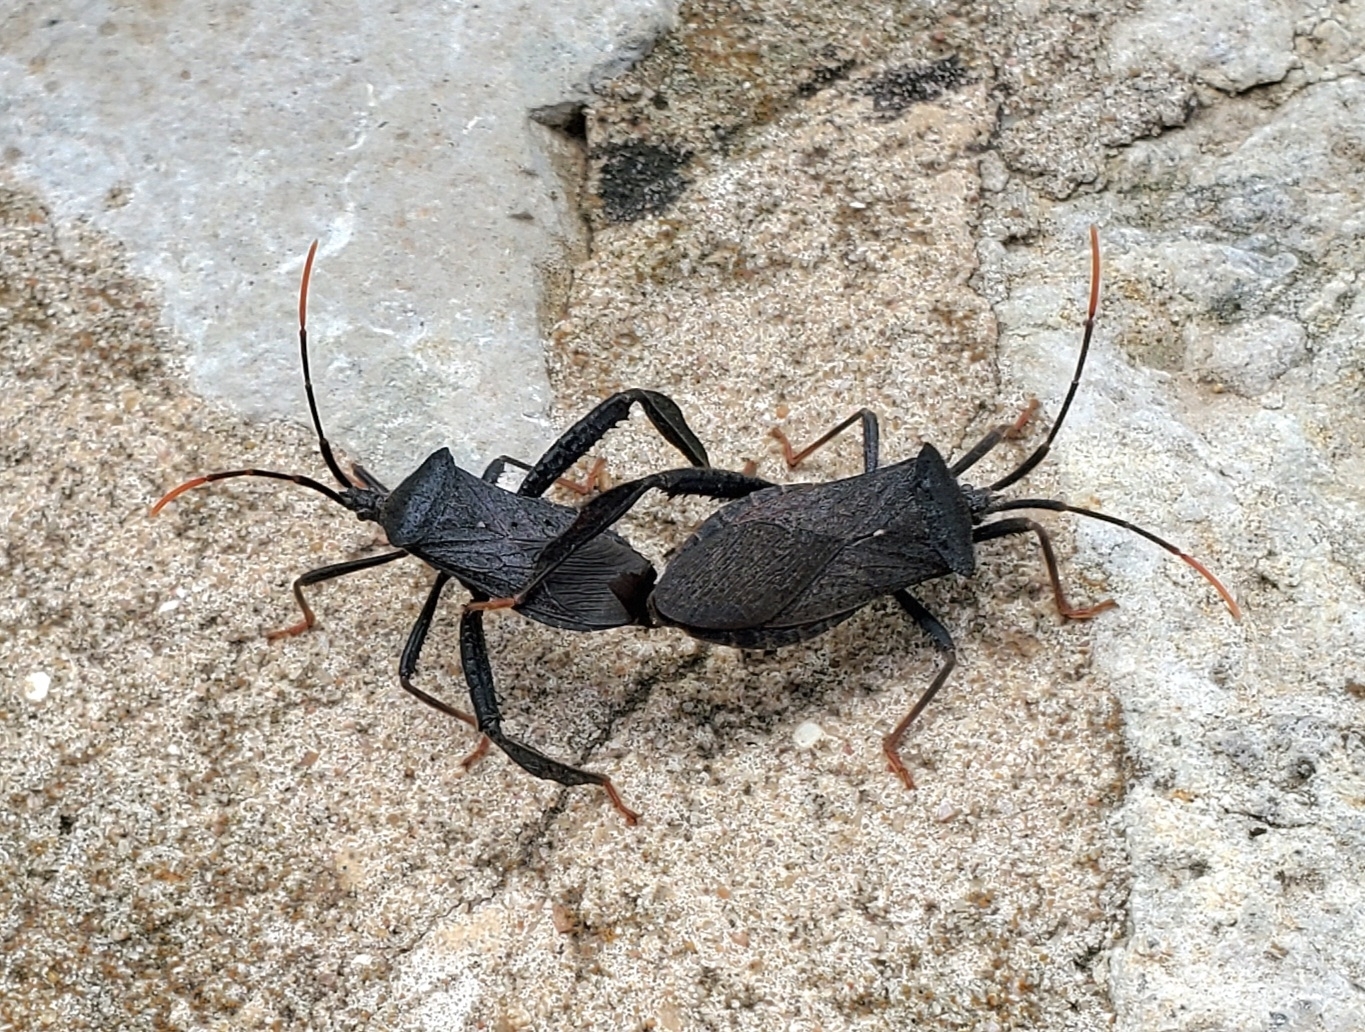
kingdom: Animalia
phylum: Arthropoda
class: Insecta
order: Hemiptera
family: Coreidae
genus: Acanthocephala
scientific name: Acanthocephala terminalis
